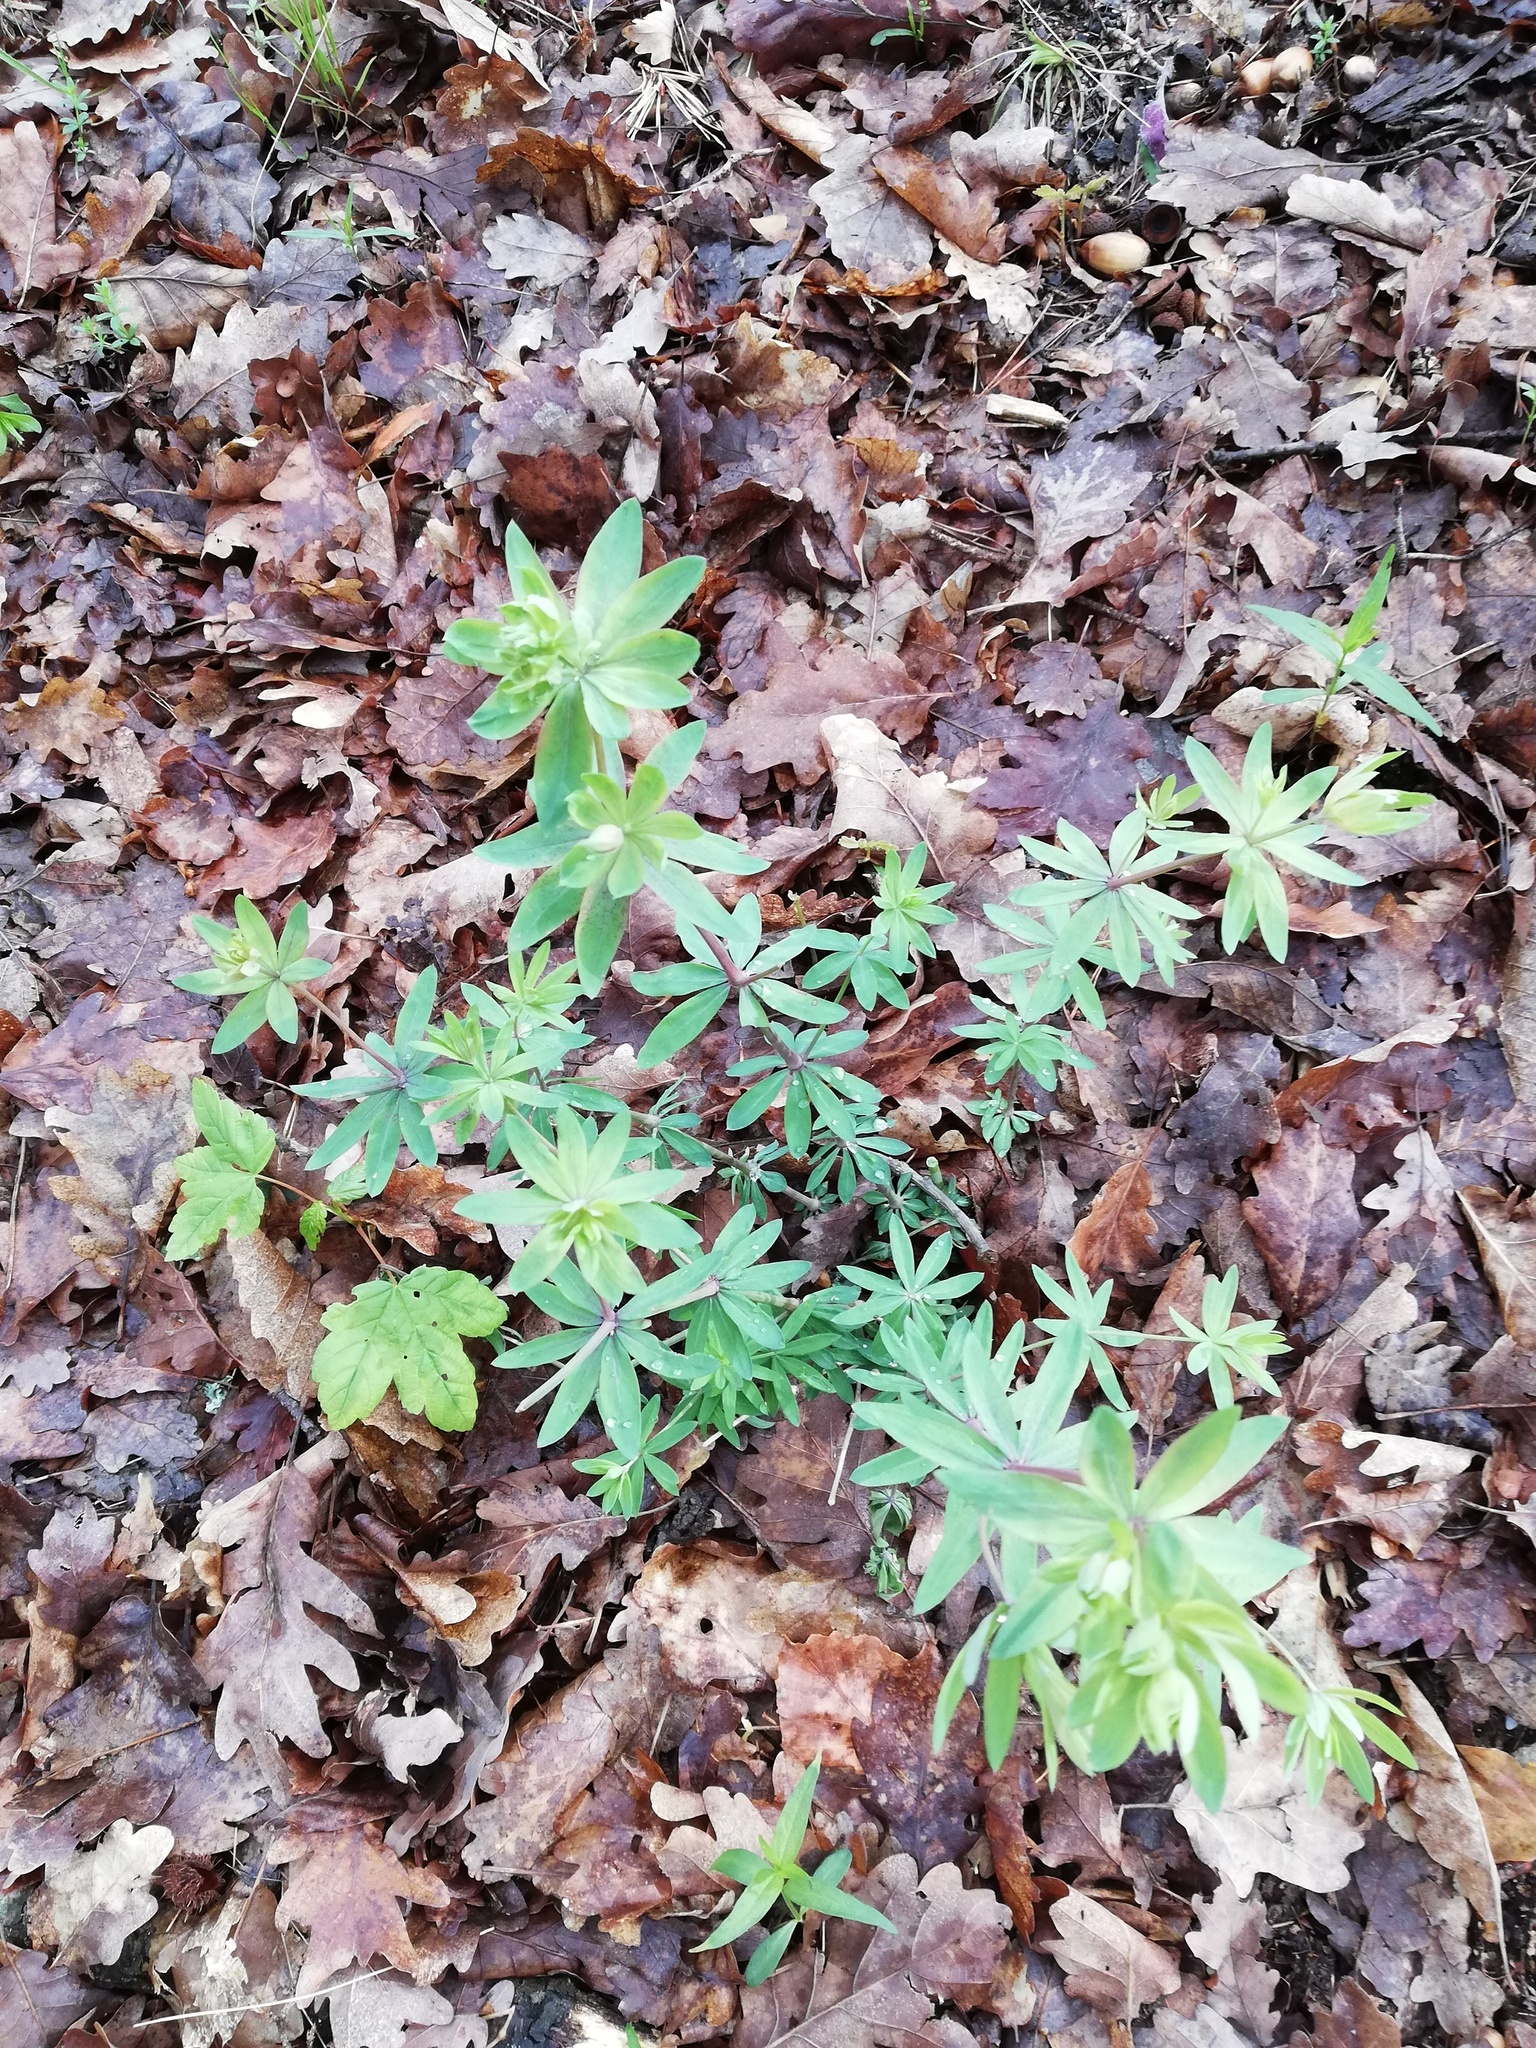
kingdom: Plantae
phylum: Tracheophyta
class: Magnoliopsida
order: Gentianales
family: Rubiaceae
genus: Galium
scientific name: Galium sylvaticum
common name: Wood bedstraw
